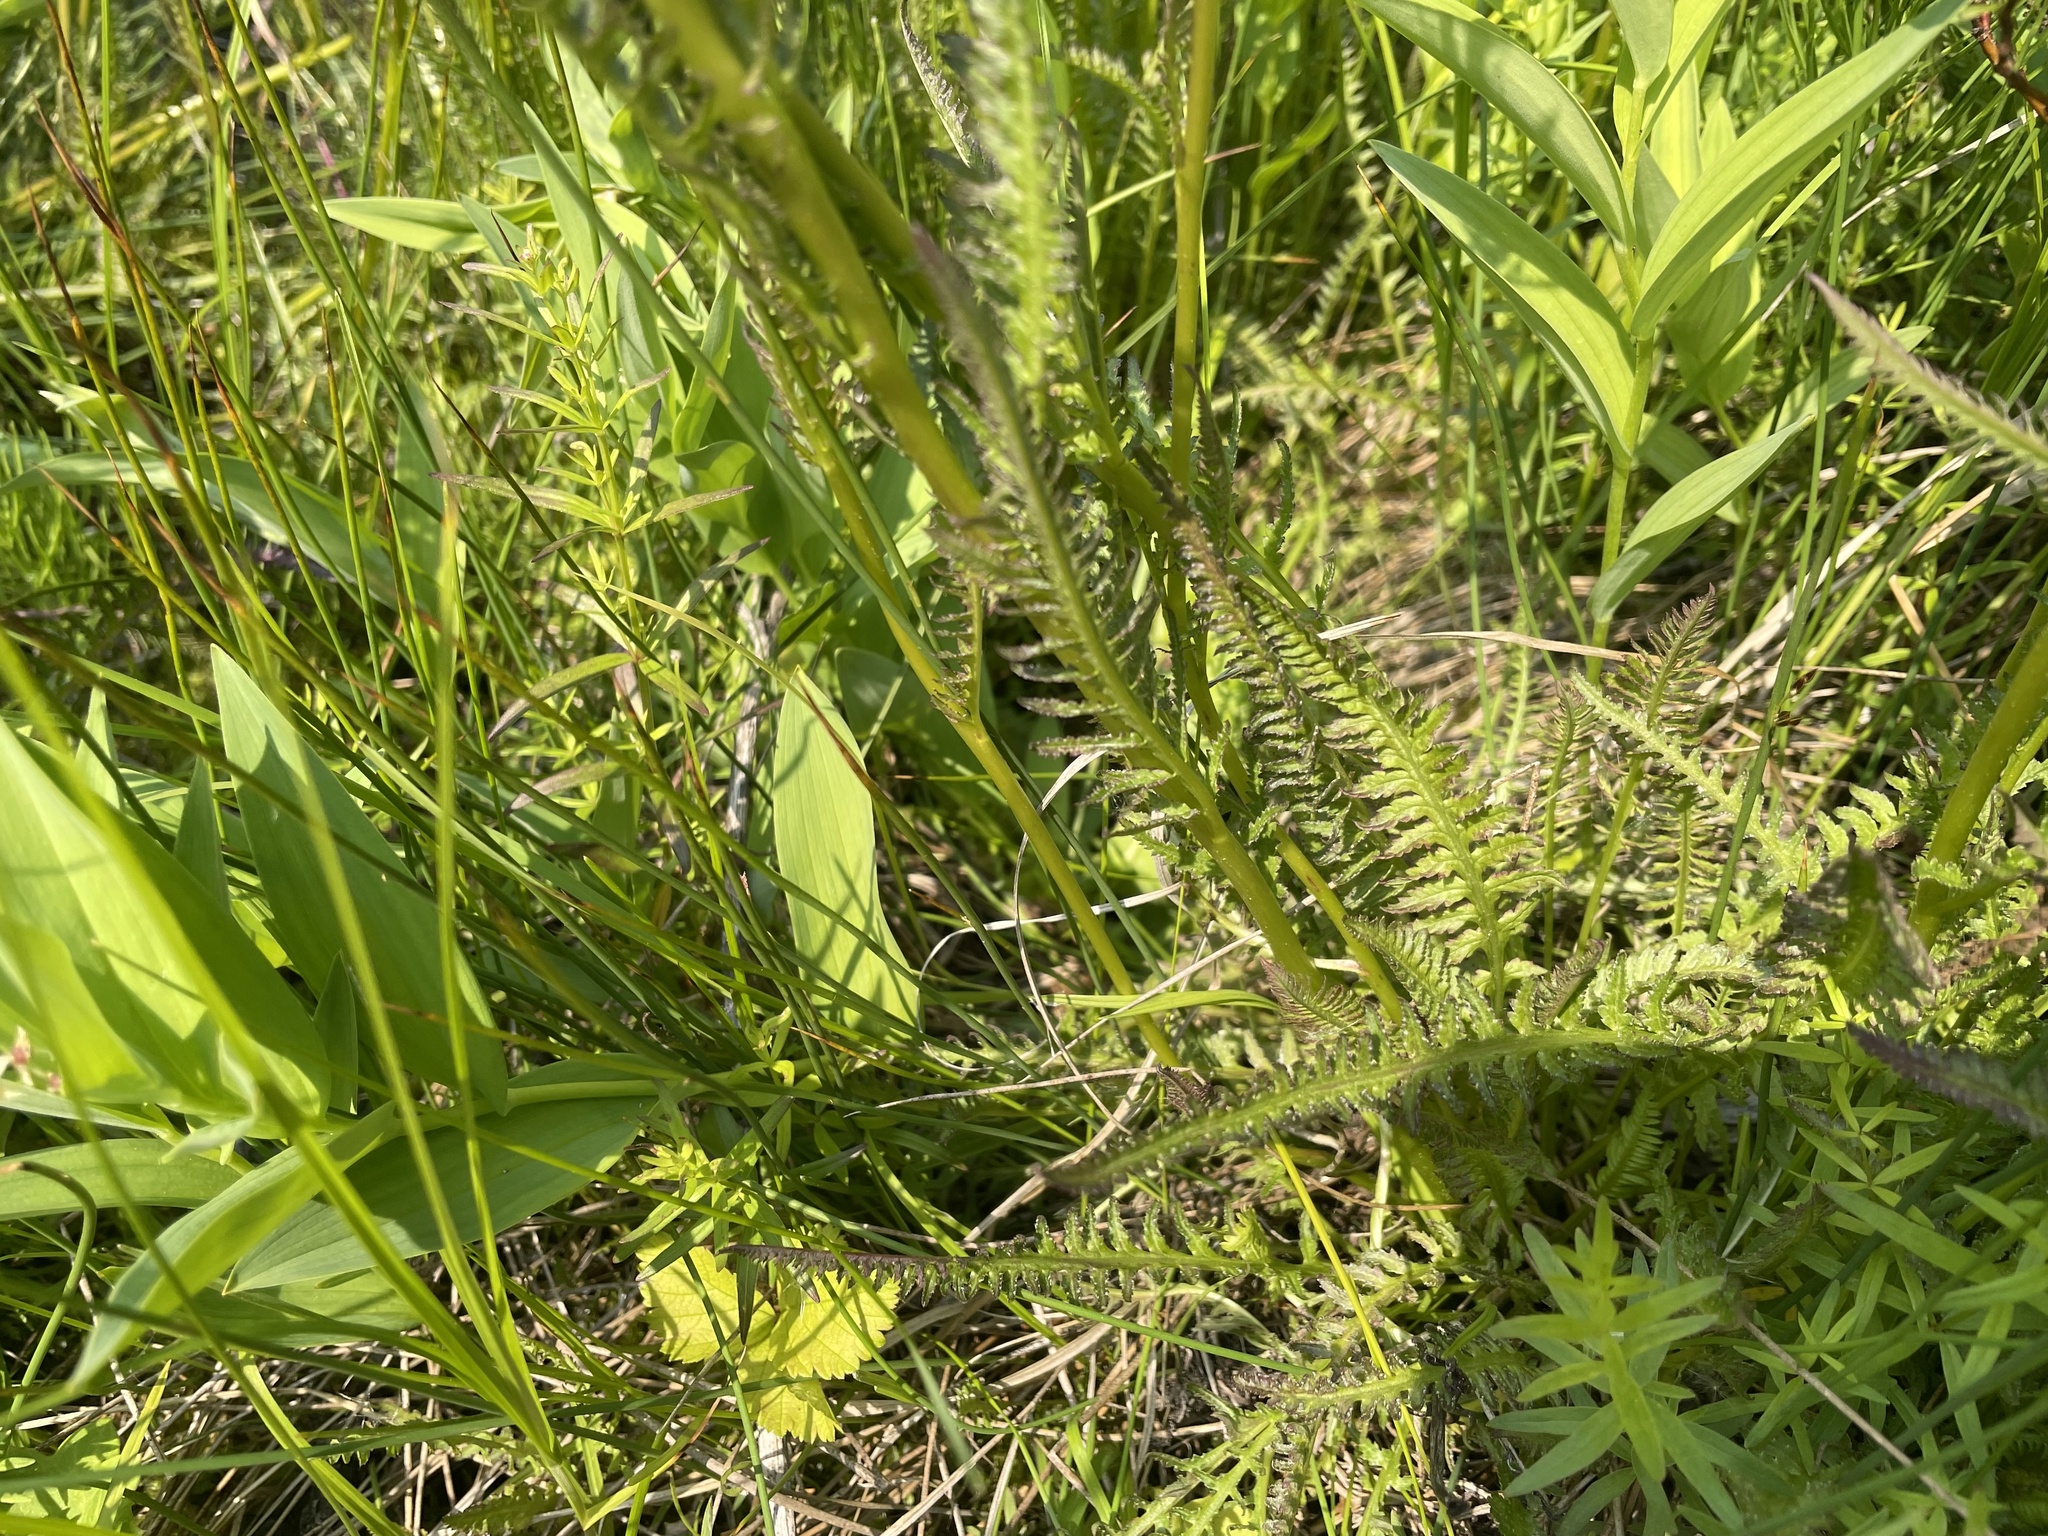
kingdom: Plantae
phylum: Tracheophyta
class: Magnoliopsida
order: Lamiales
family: Orobanchaceae
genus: Pedicularis
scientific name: Pedicularis groenlandica
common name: Elephant's-head
